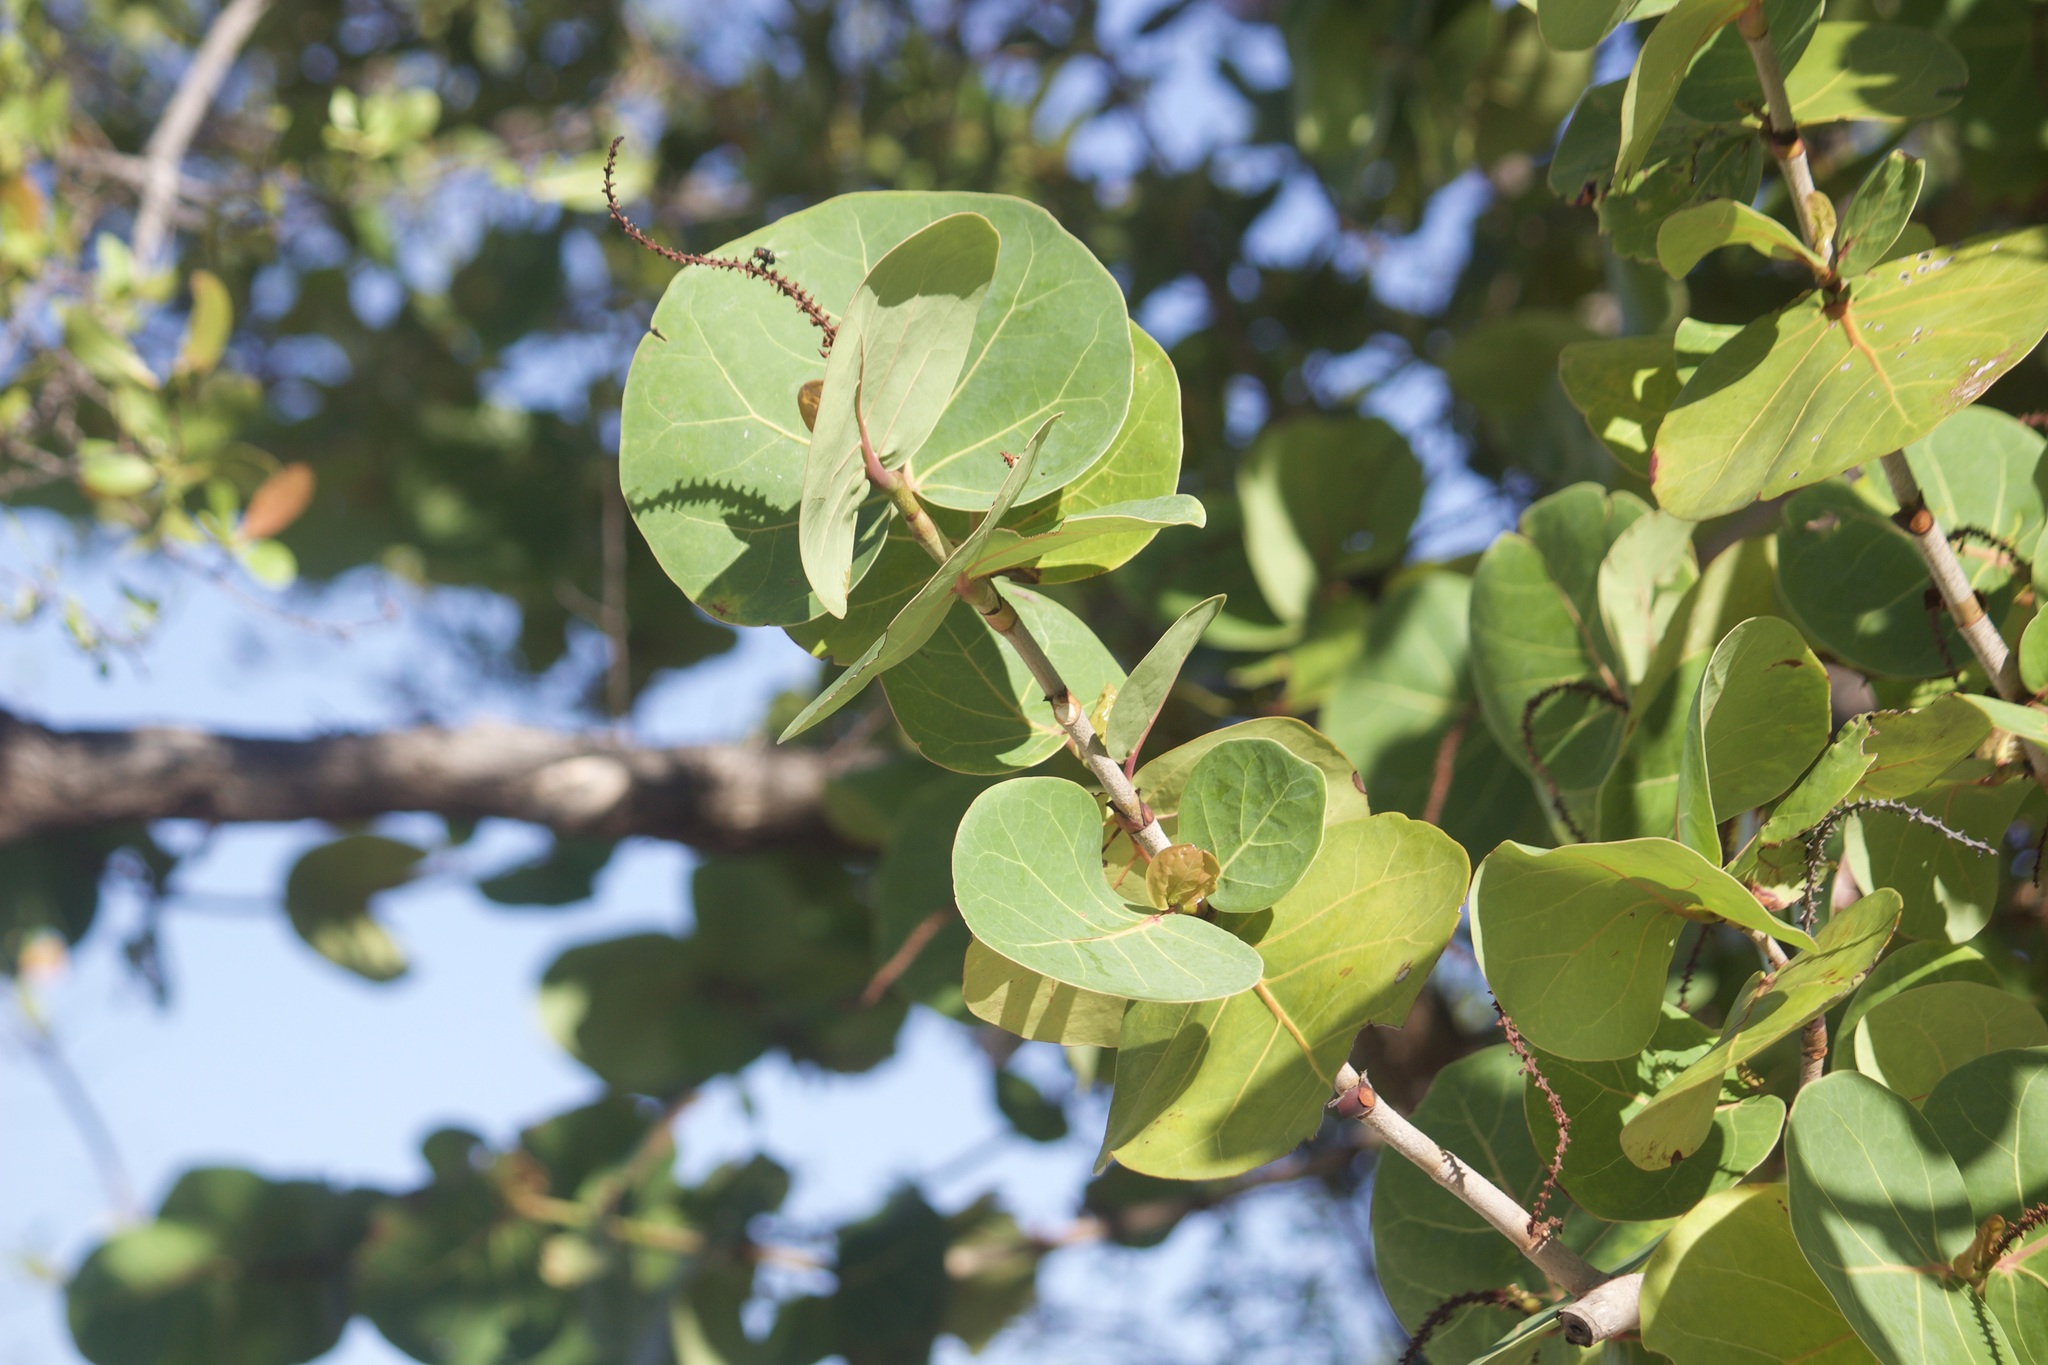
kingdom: Plantae
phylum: Tracheophyta
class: Magnoliopsida
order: Caryophyllales
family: Polygonaceae
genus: Coccoloba
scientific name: Coccoloba uvifera
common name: Seagrape
